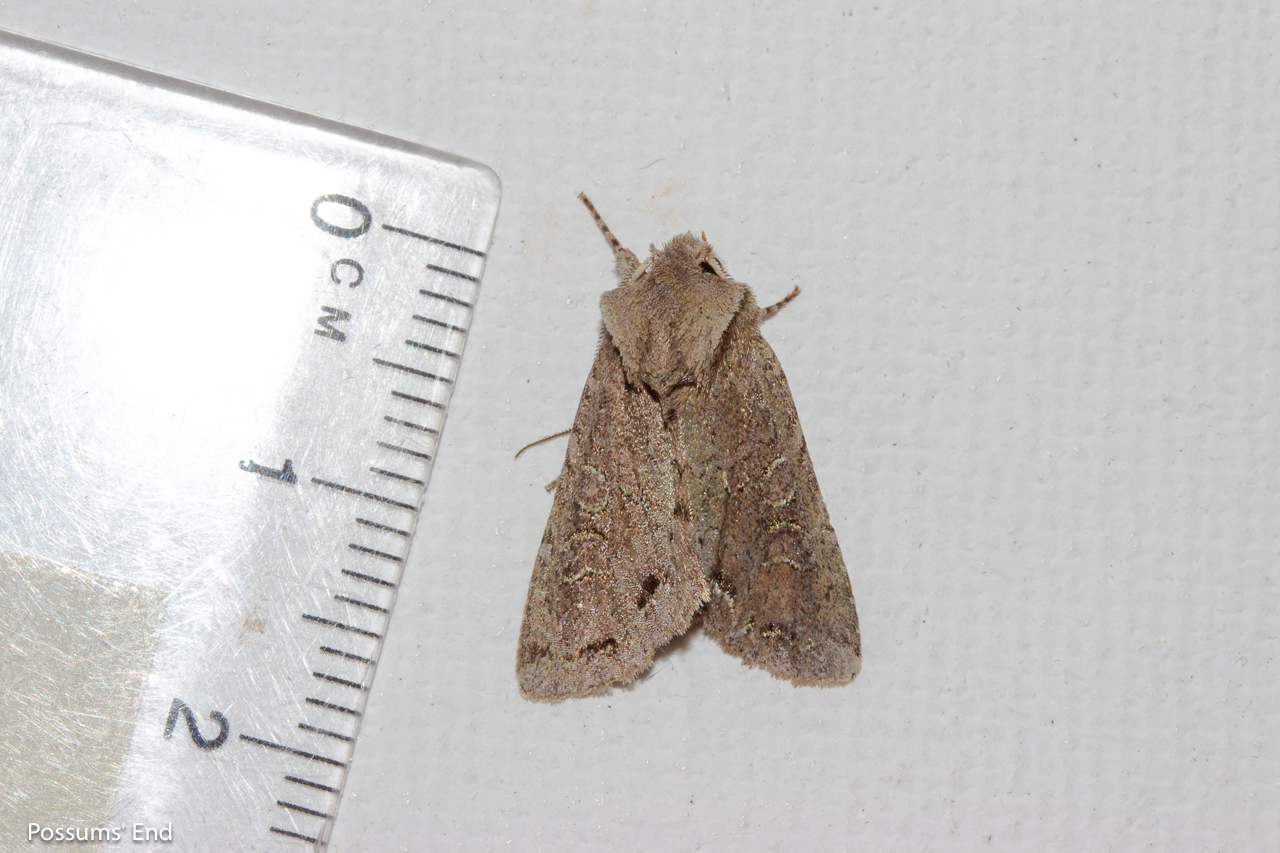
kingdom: Animalia
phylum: Arthropoda
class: Insecta
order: Lepidoptera
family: Noctuidae
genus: Ichneutica
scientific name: Ichneutica skelloni
